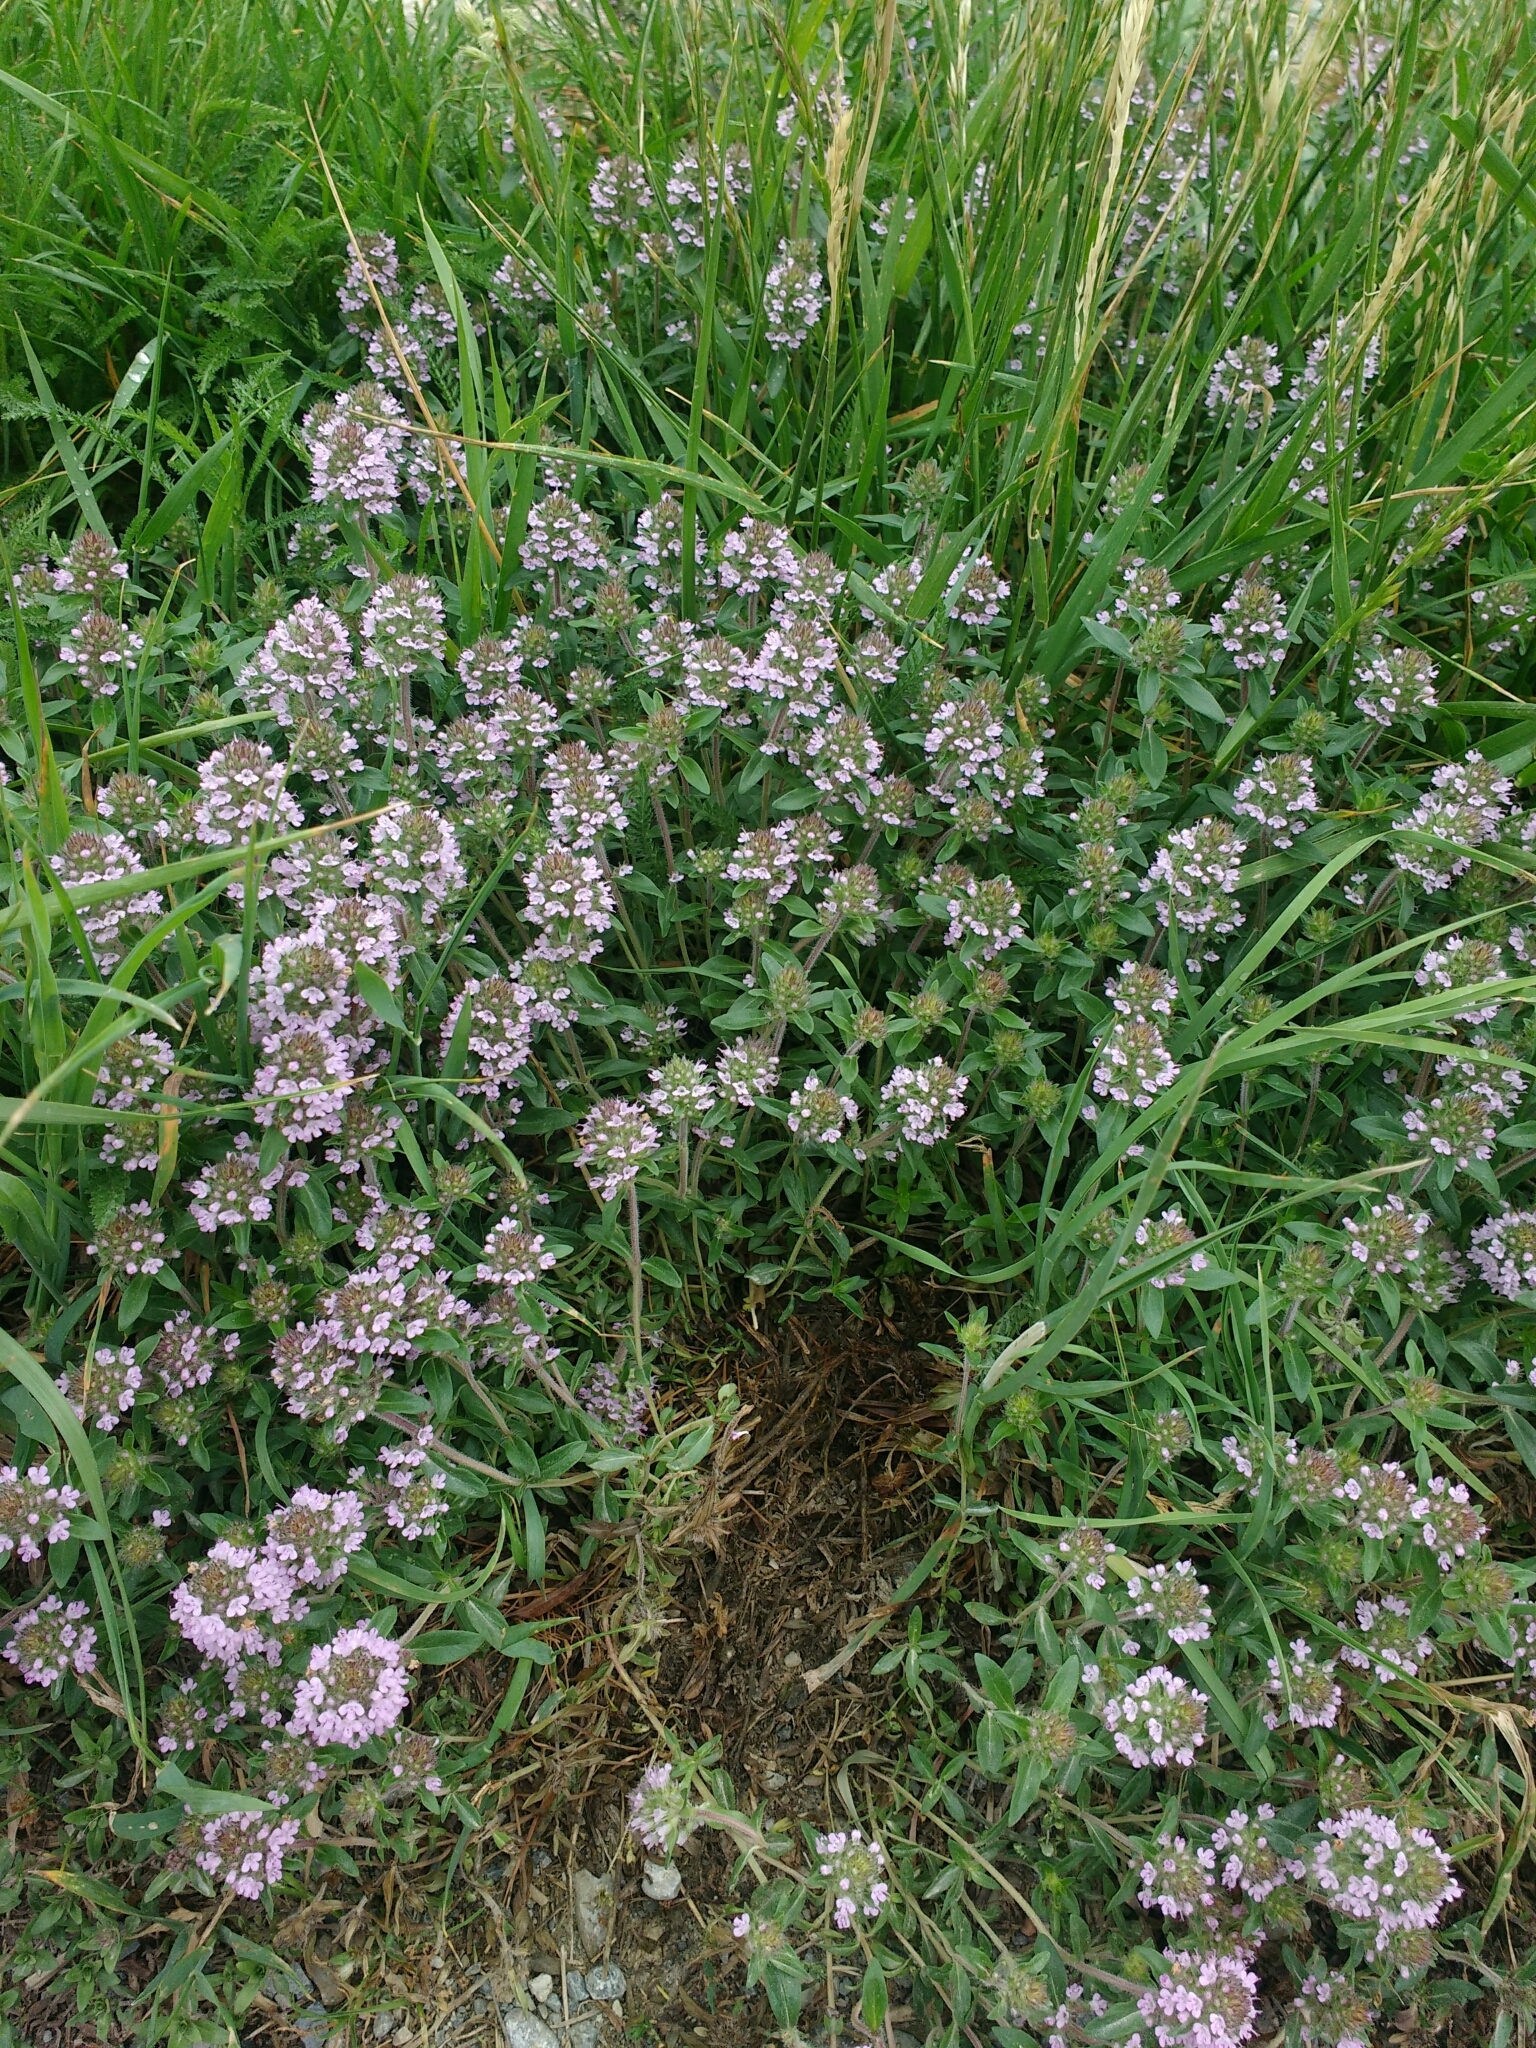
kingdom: Plantae
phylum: Tracheophyta
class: Magnoliopsida
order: Lamiales
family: Lamiaceae
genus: Thymus
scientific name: Thymus kosteleckyanus
